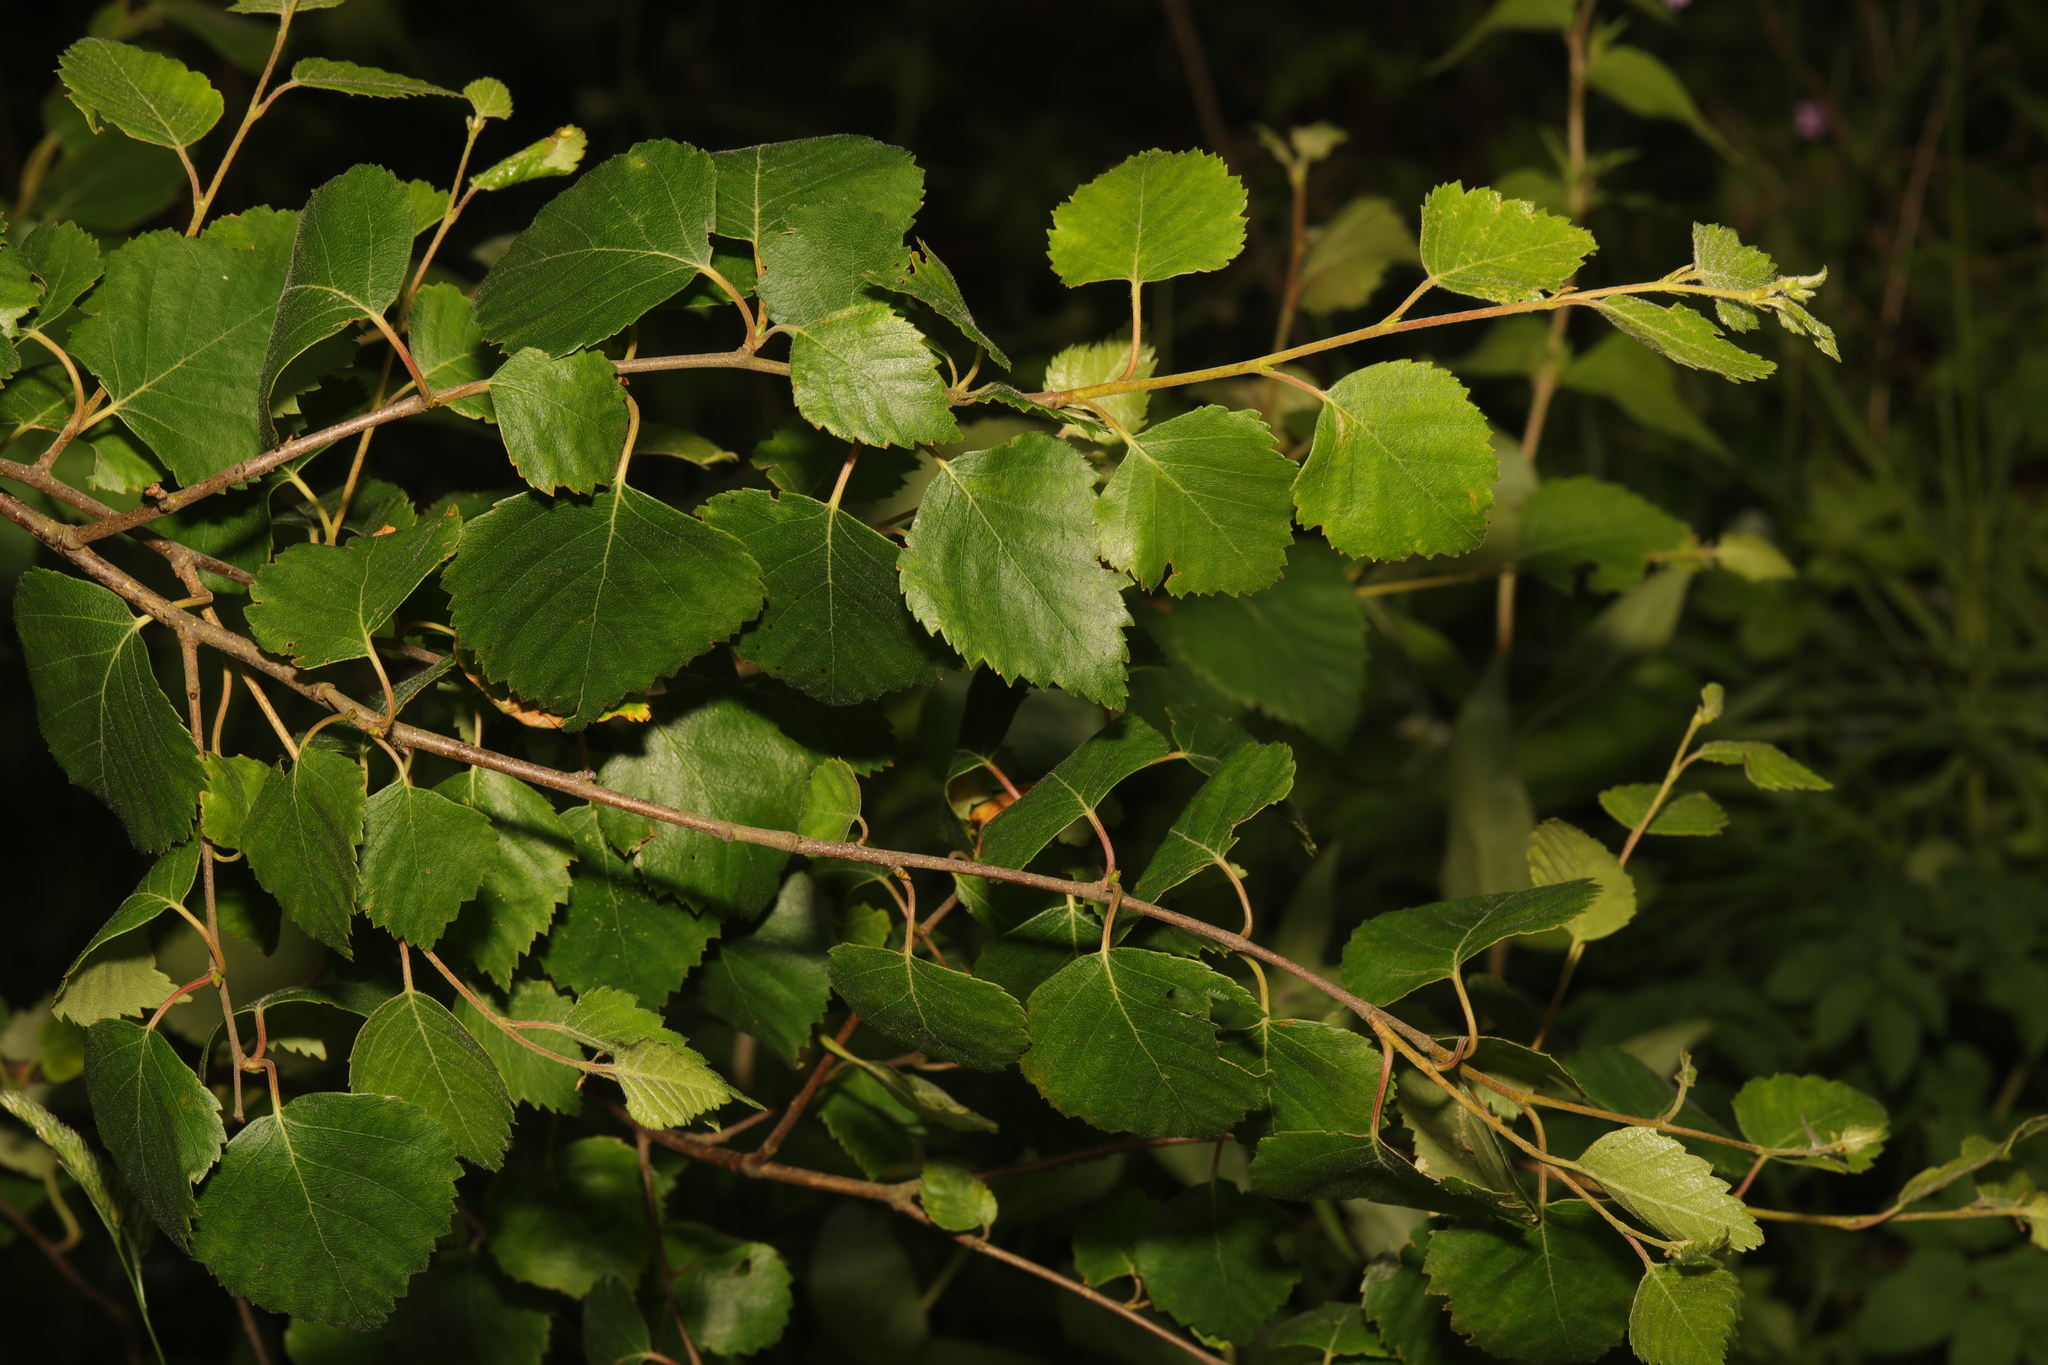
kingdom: Plantae
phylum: Tracheophyta
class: Magnoliopsida
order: Fagales
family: Betulaceae
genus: Betula
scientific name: Betula pendula
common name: Silver birch
